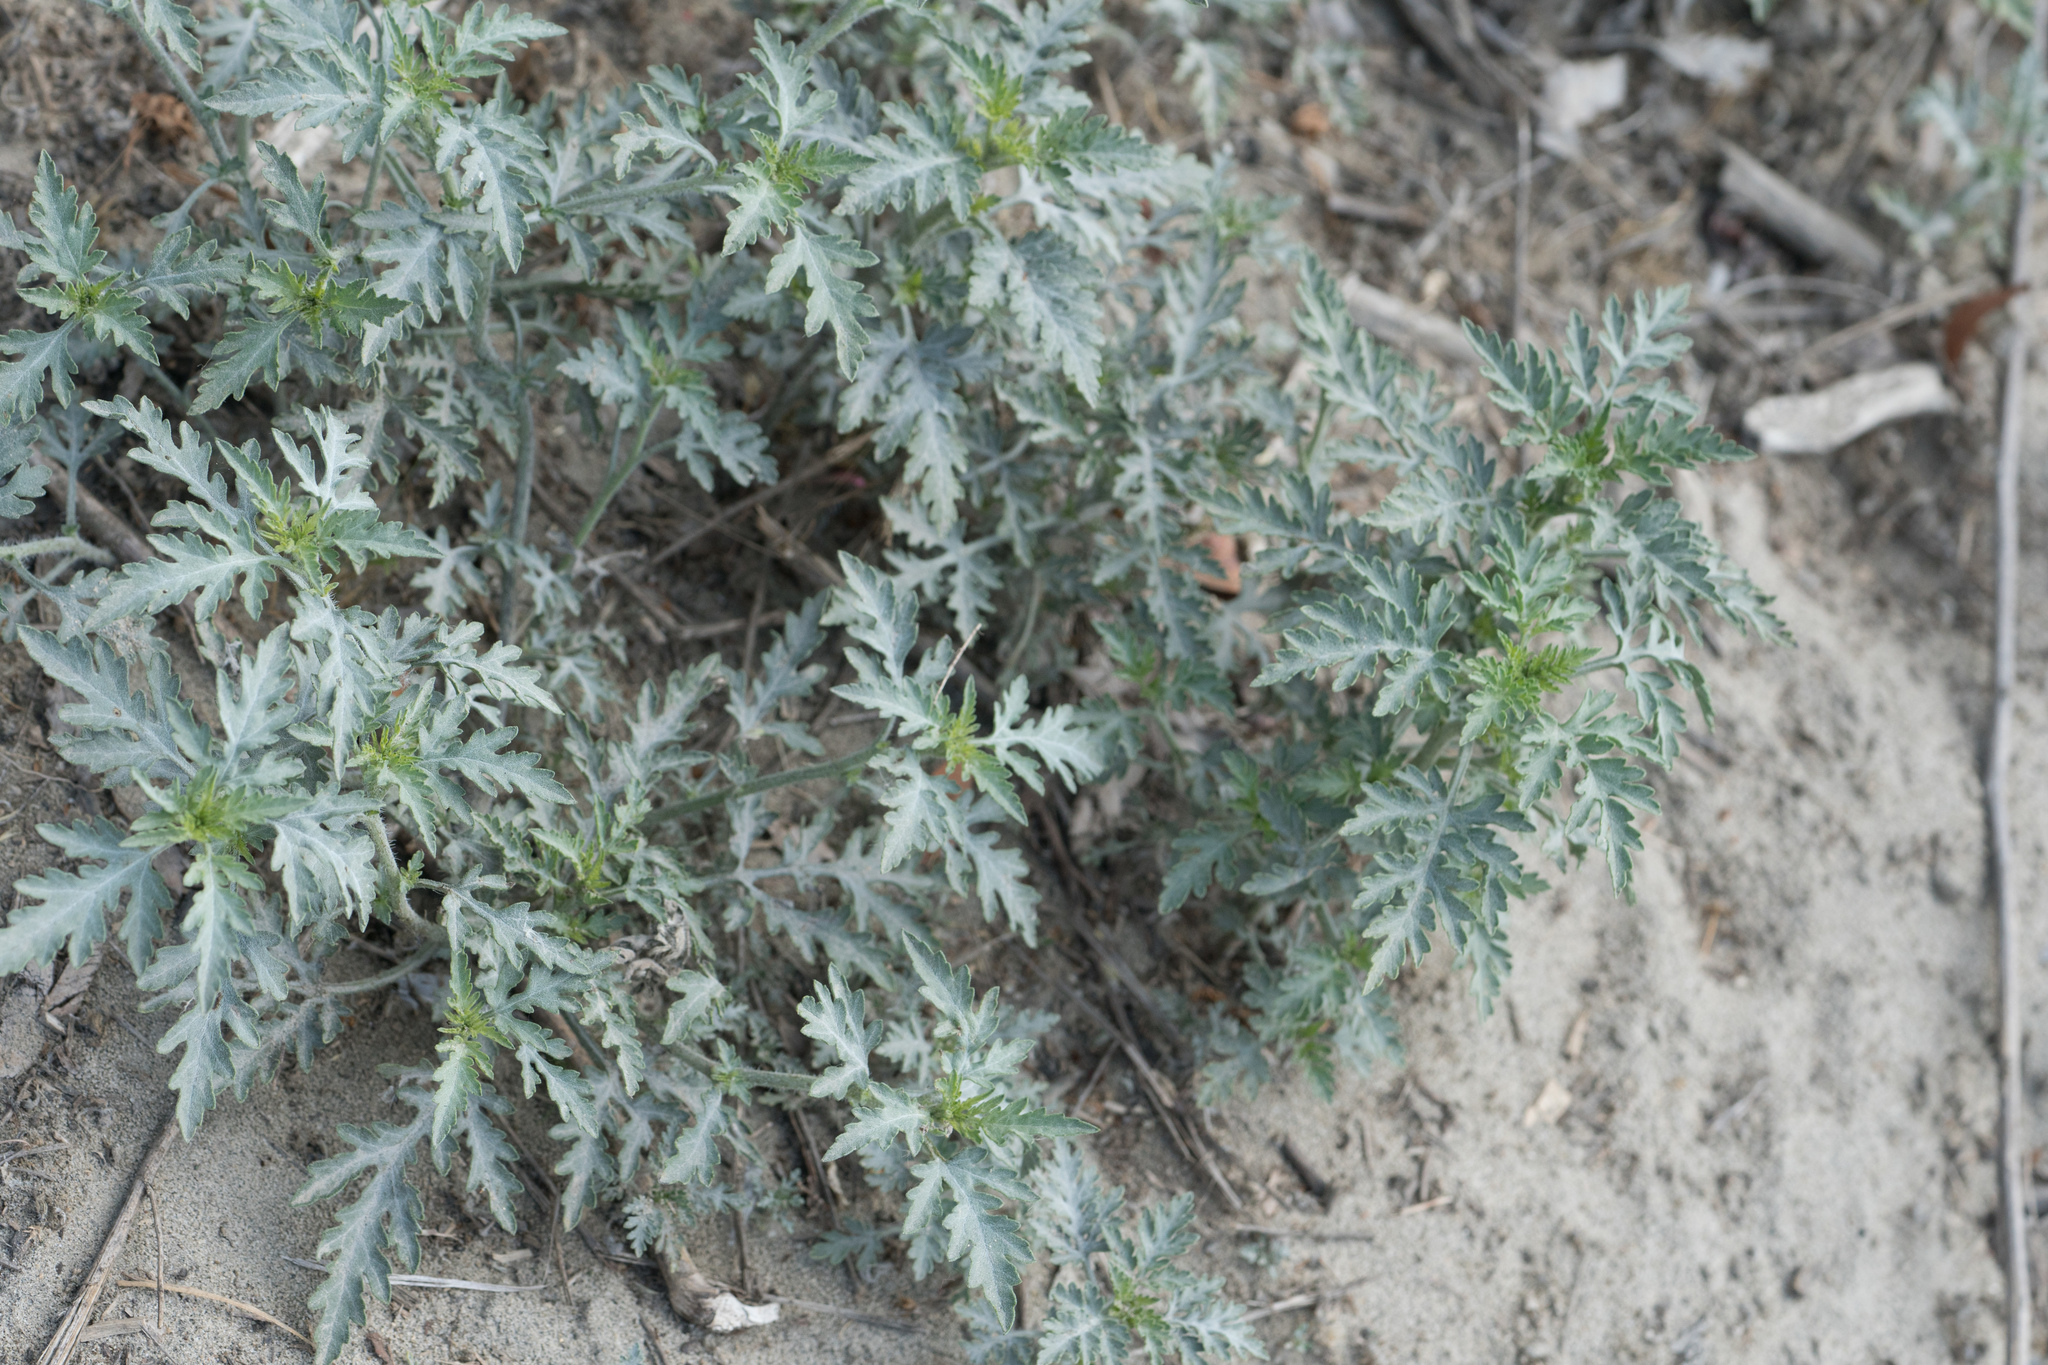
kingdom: Plantae
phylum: Tracheophyta
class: Magnoliopsida
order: Asterales
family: Asteraceae
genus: Ambrosia
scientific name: Ambrosia acanthicarpa
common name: Hooker's bur ragweed
